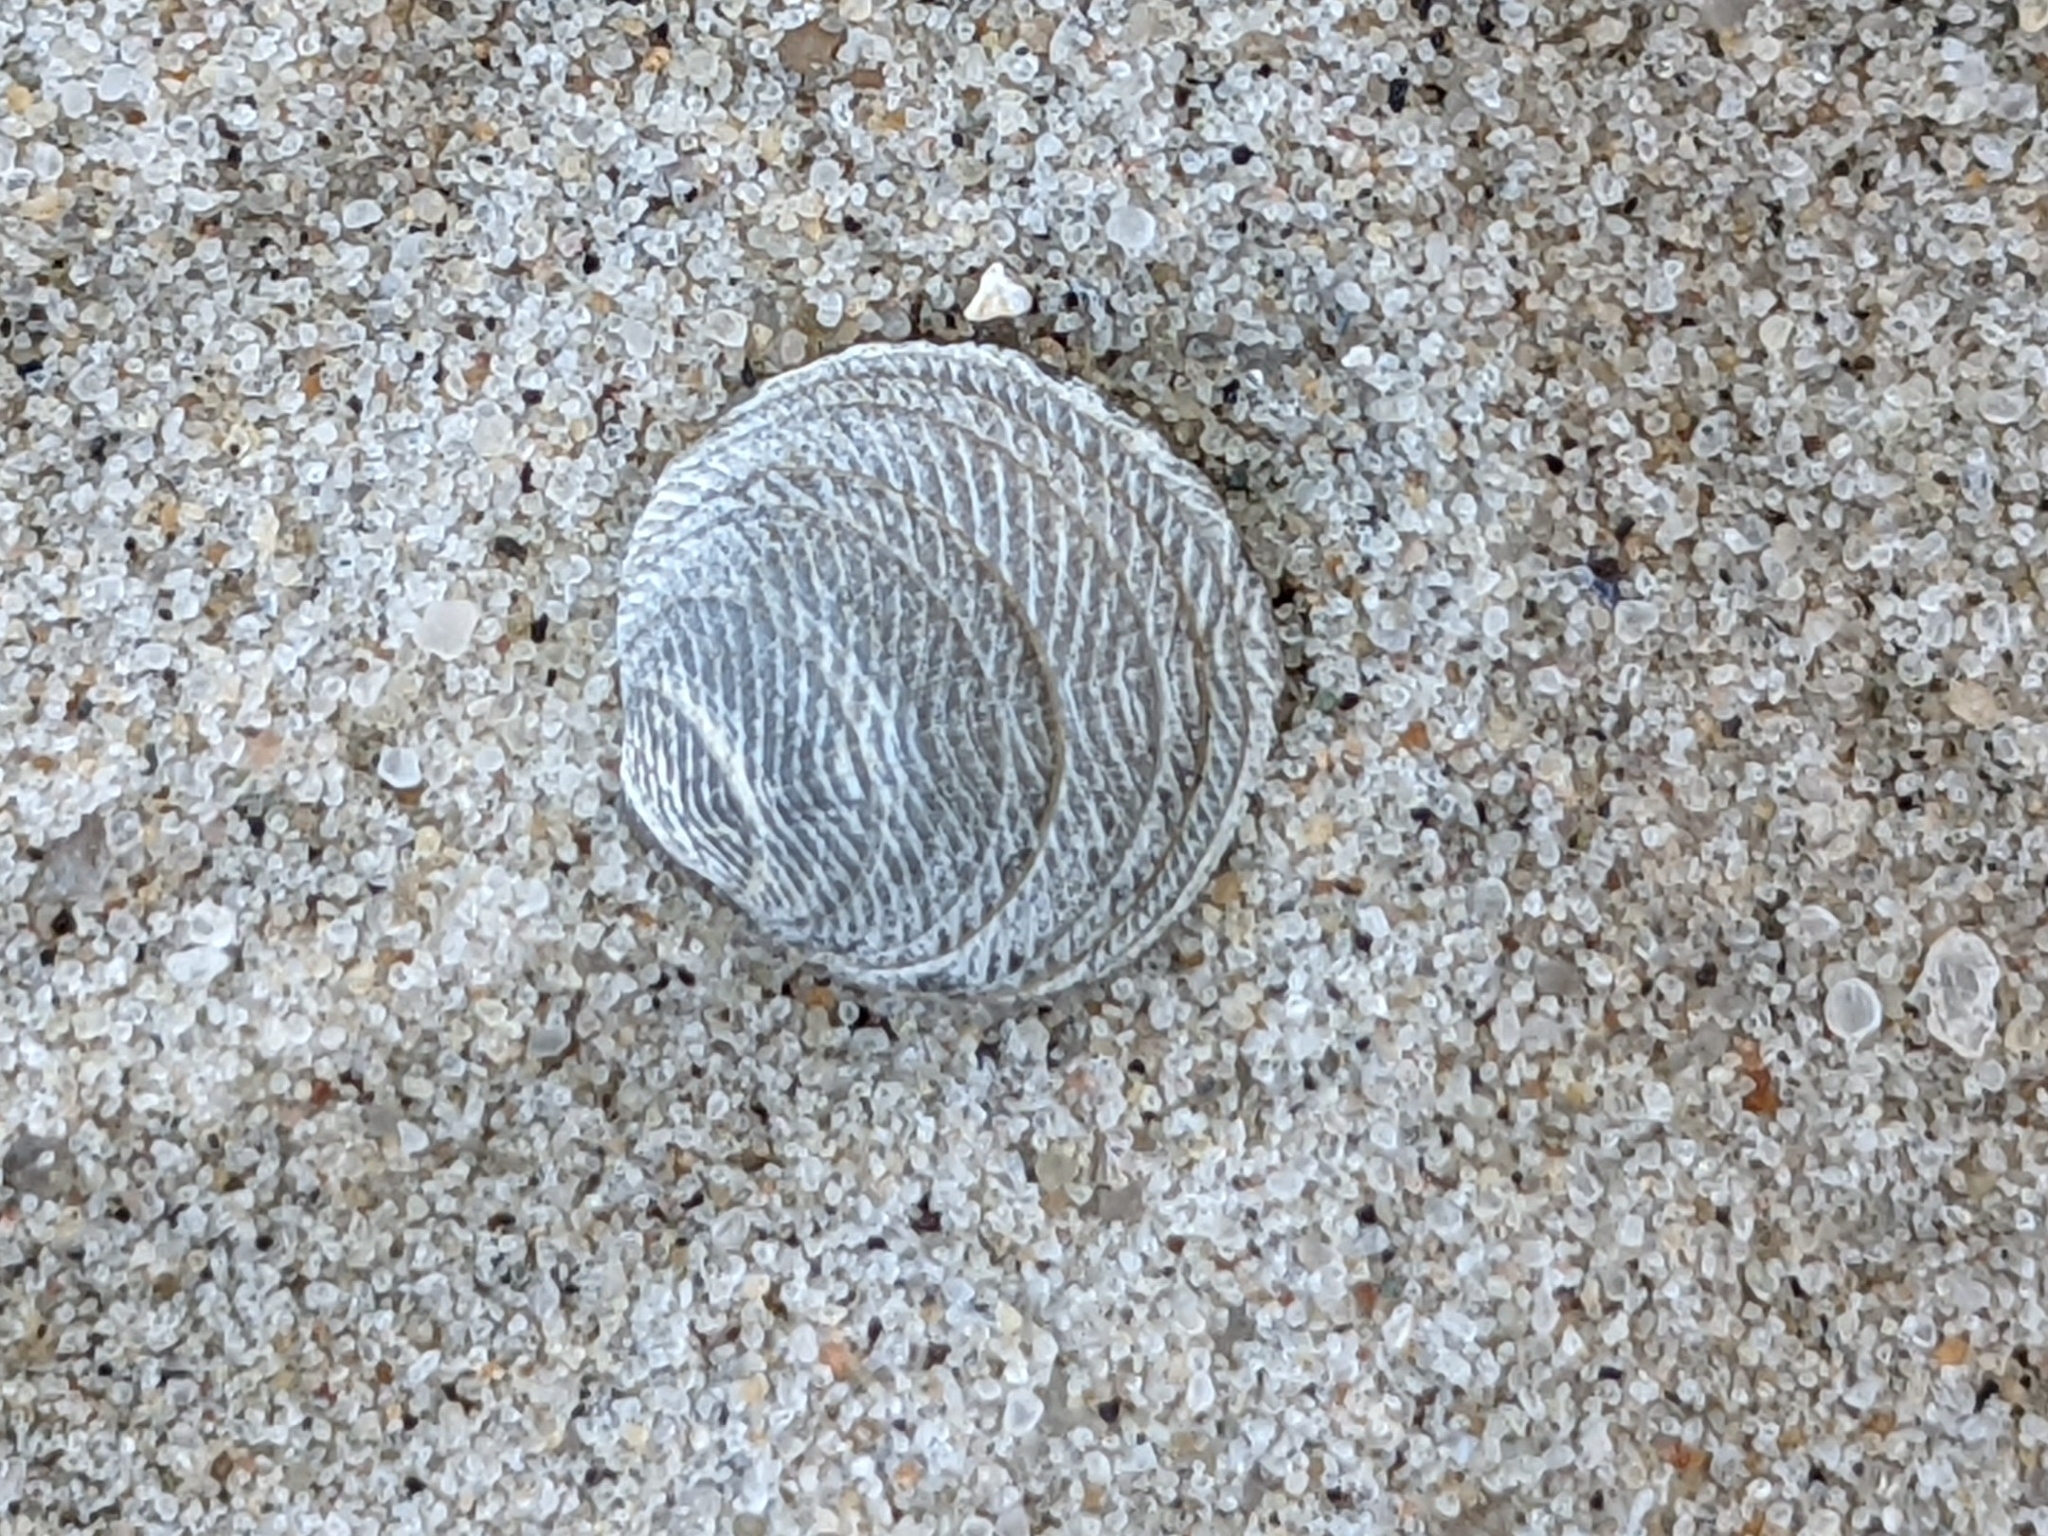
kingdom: Animalia
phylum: Mollusca
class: Bivalvia
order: Lucinida
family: Lucinidae
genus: Divalinga
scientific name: Divalinga quadrisulcata
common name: Cross-hatched lucine
